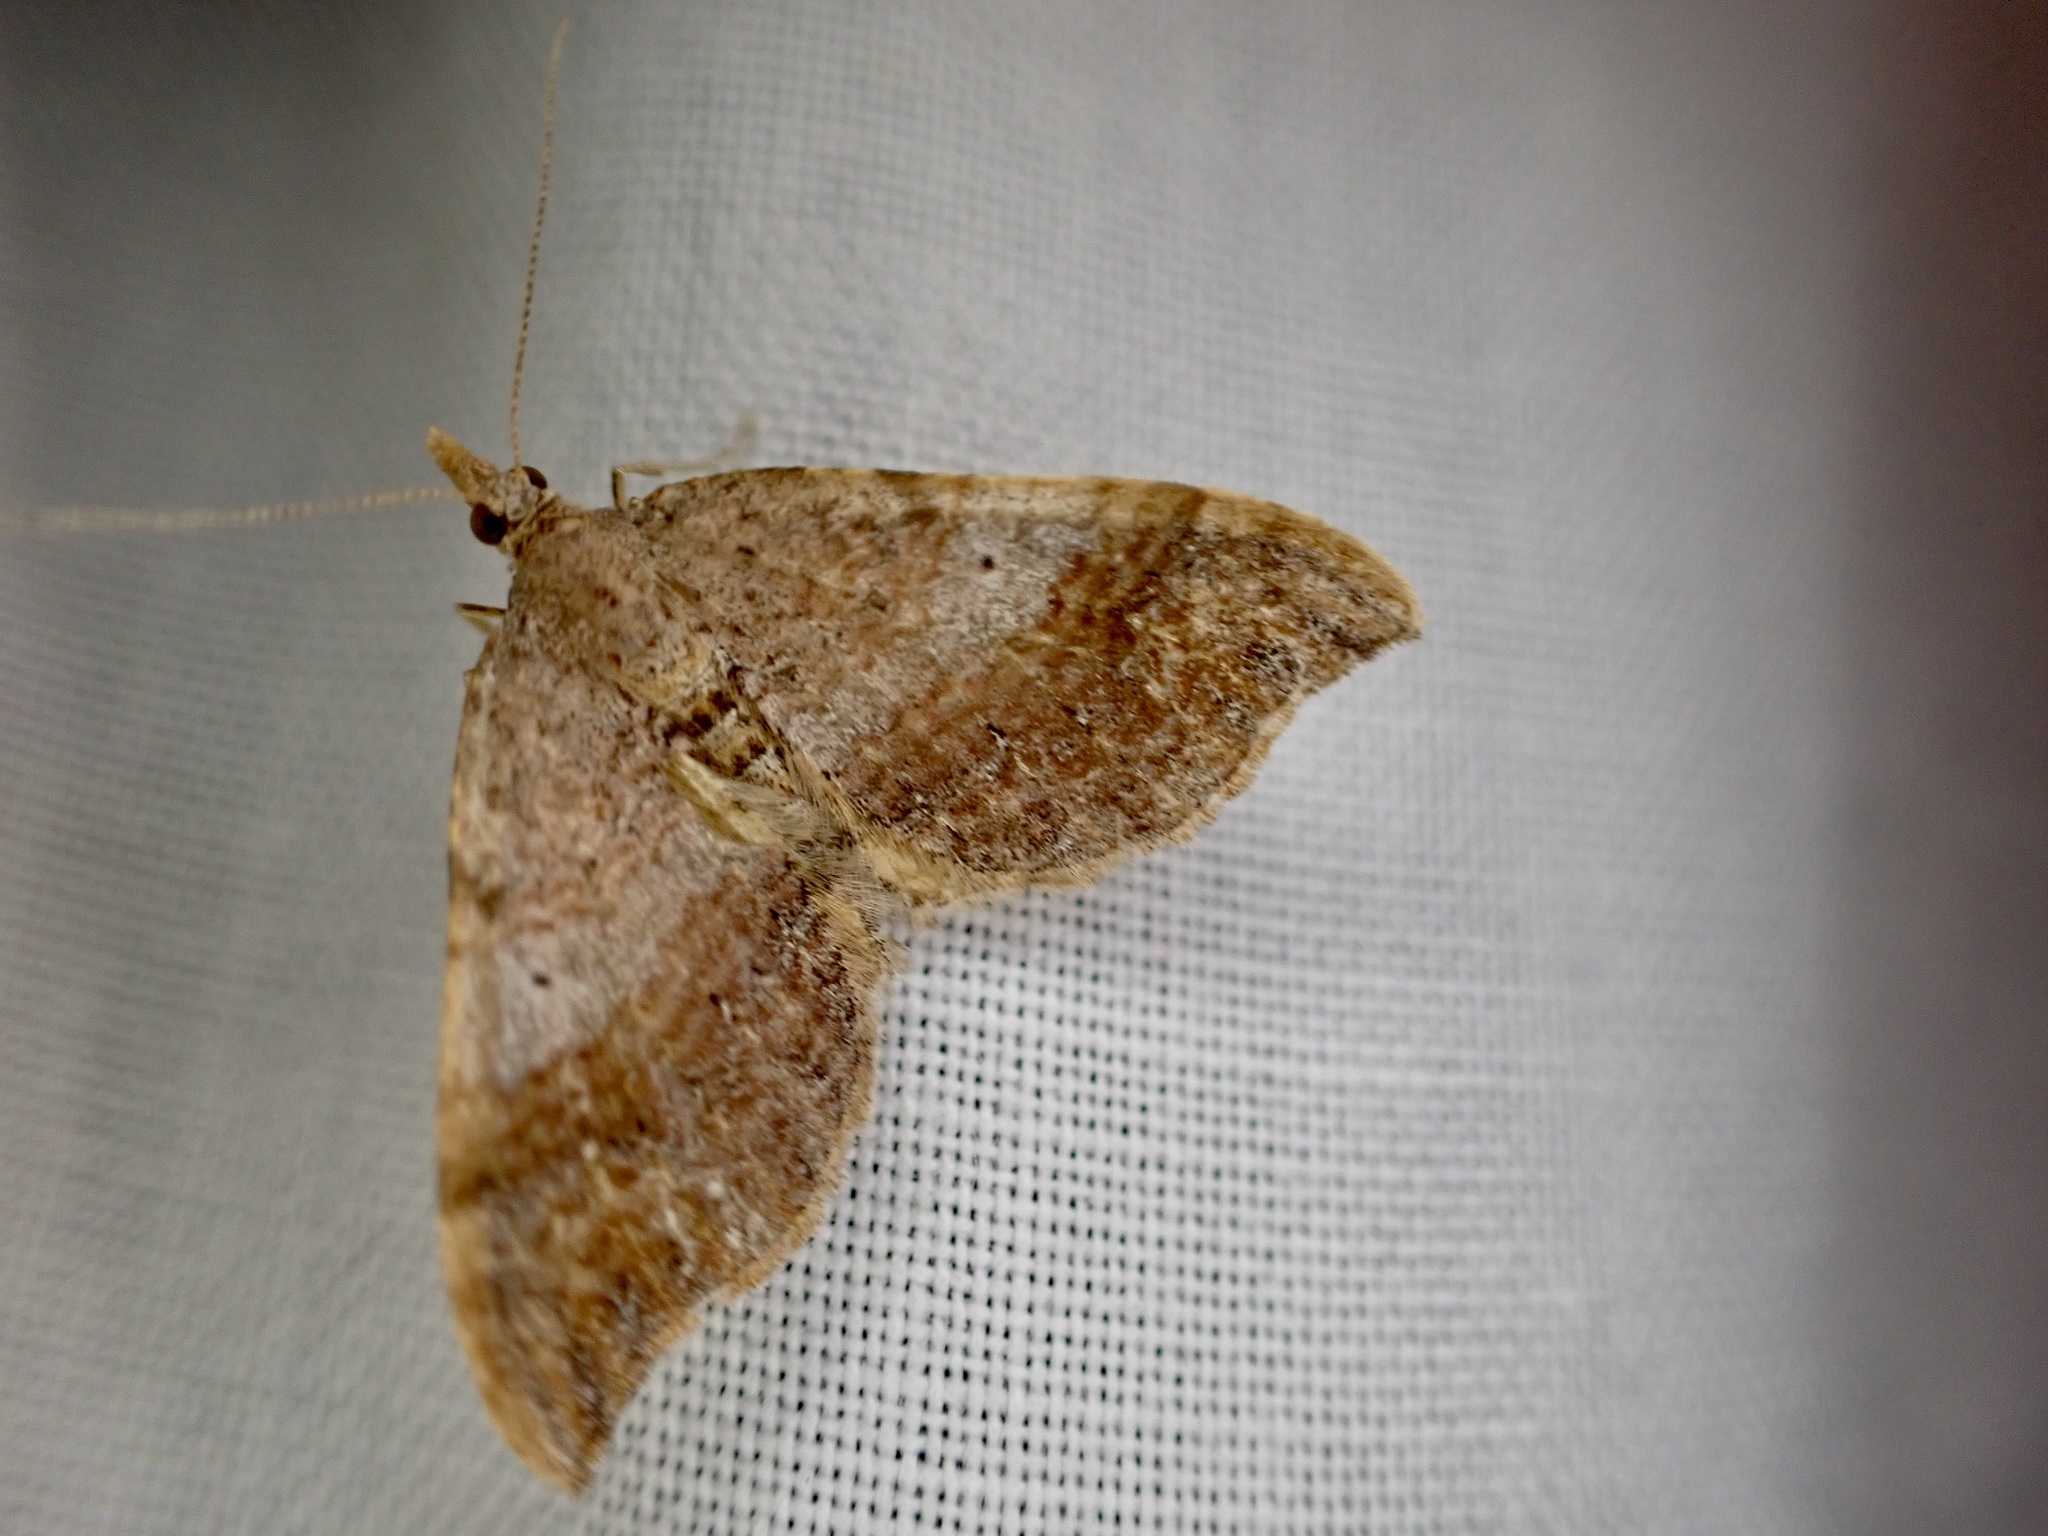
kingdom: Animalia
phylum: Arthropoda
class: Insecta
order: Lepidoptera
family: Geometridae
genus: Homodotis
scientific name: Homodotis megaspilata
